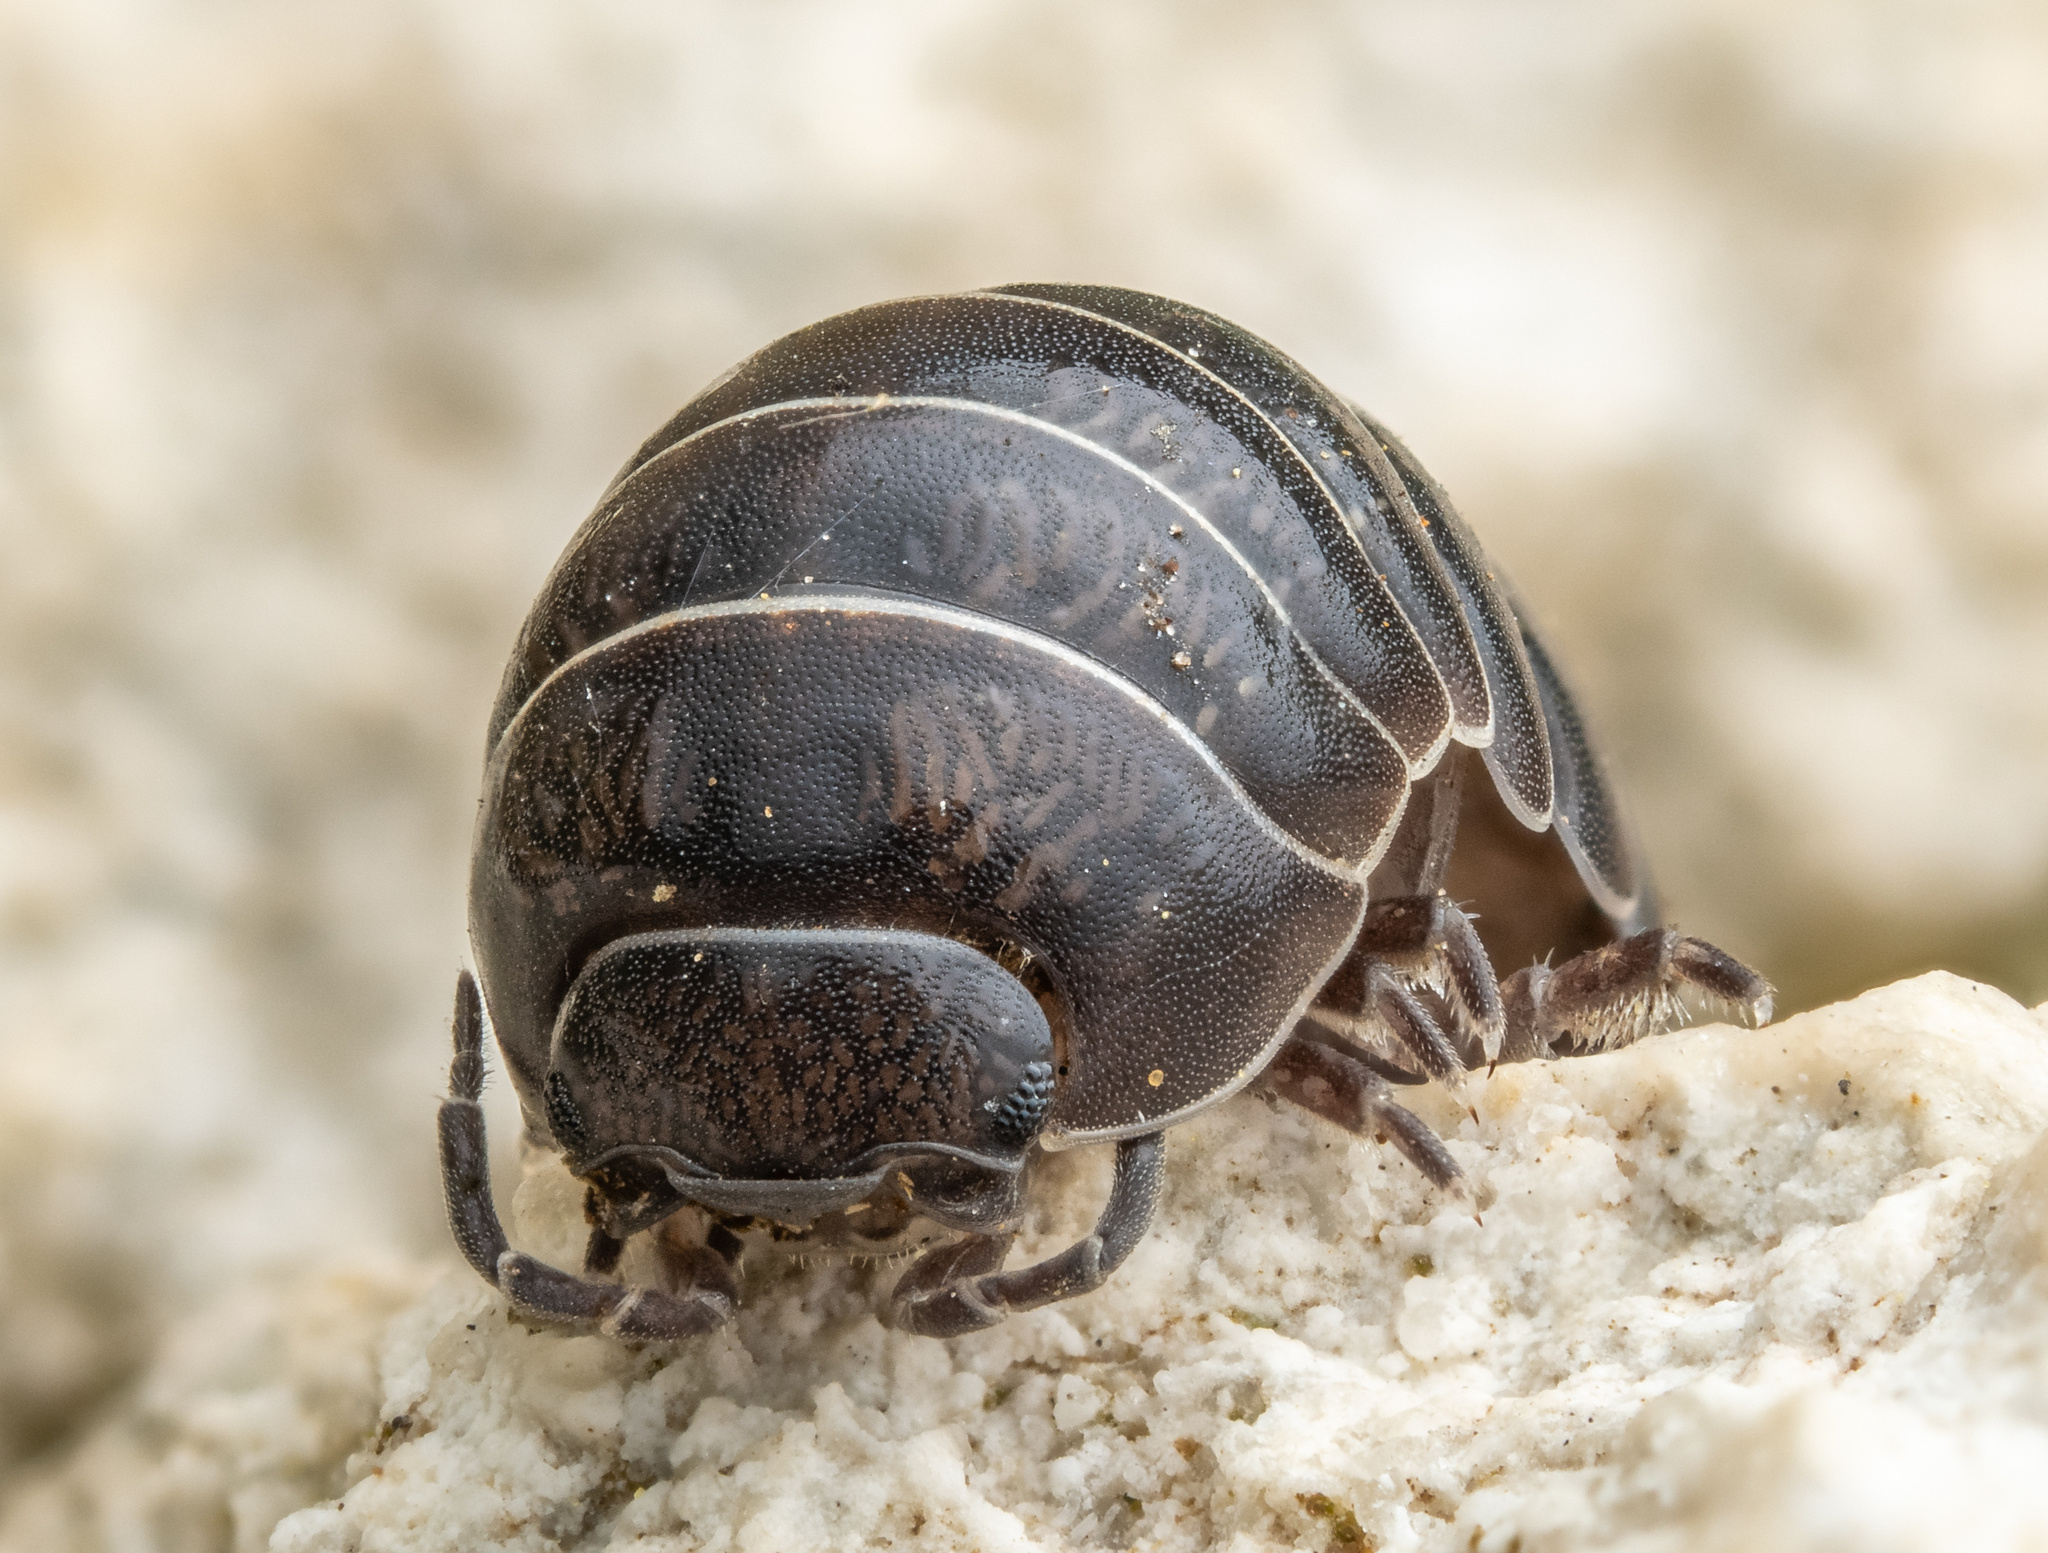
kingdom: Animalia
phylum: Arthropoda
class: Malacostraca
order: Isopoda
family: Armadillidiidae
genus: Armadillidium
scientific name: Armadillidium vulgare
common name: Common pill woodlouse
